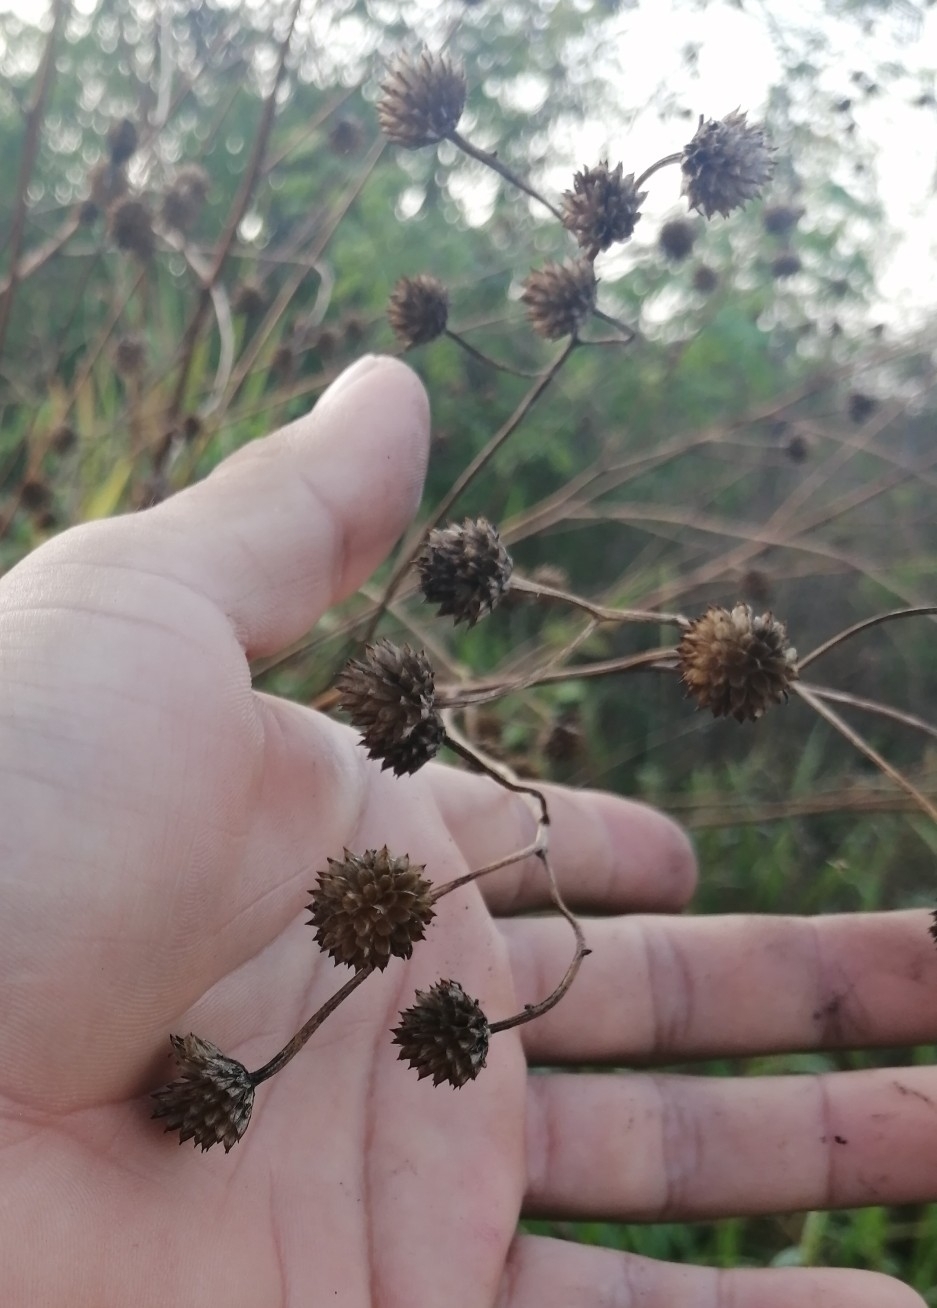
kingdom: Plantae
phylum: Tracheophyta
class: Magnoliopsida
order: Asterales
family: Asteraceae
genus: Melanthera
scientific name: Melanthera nivea
